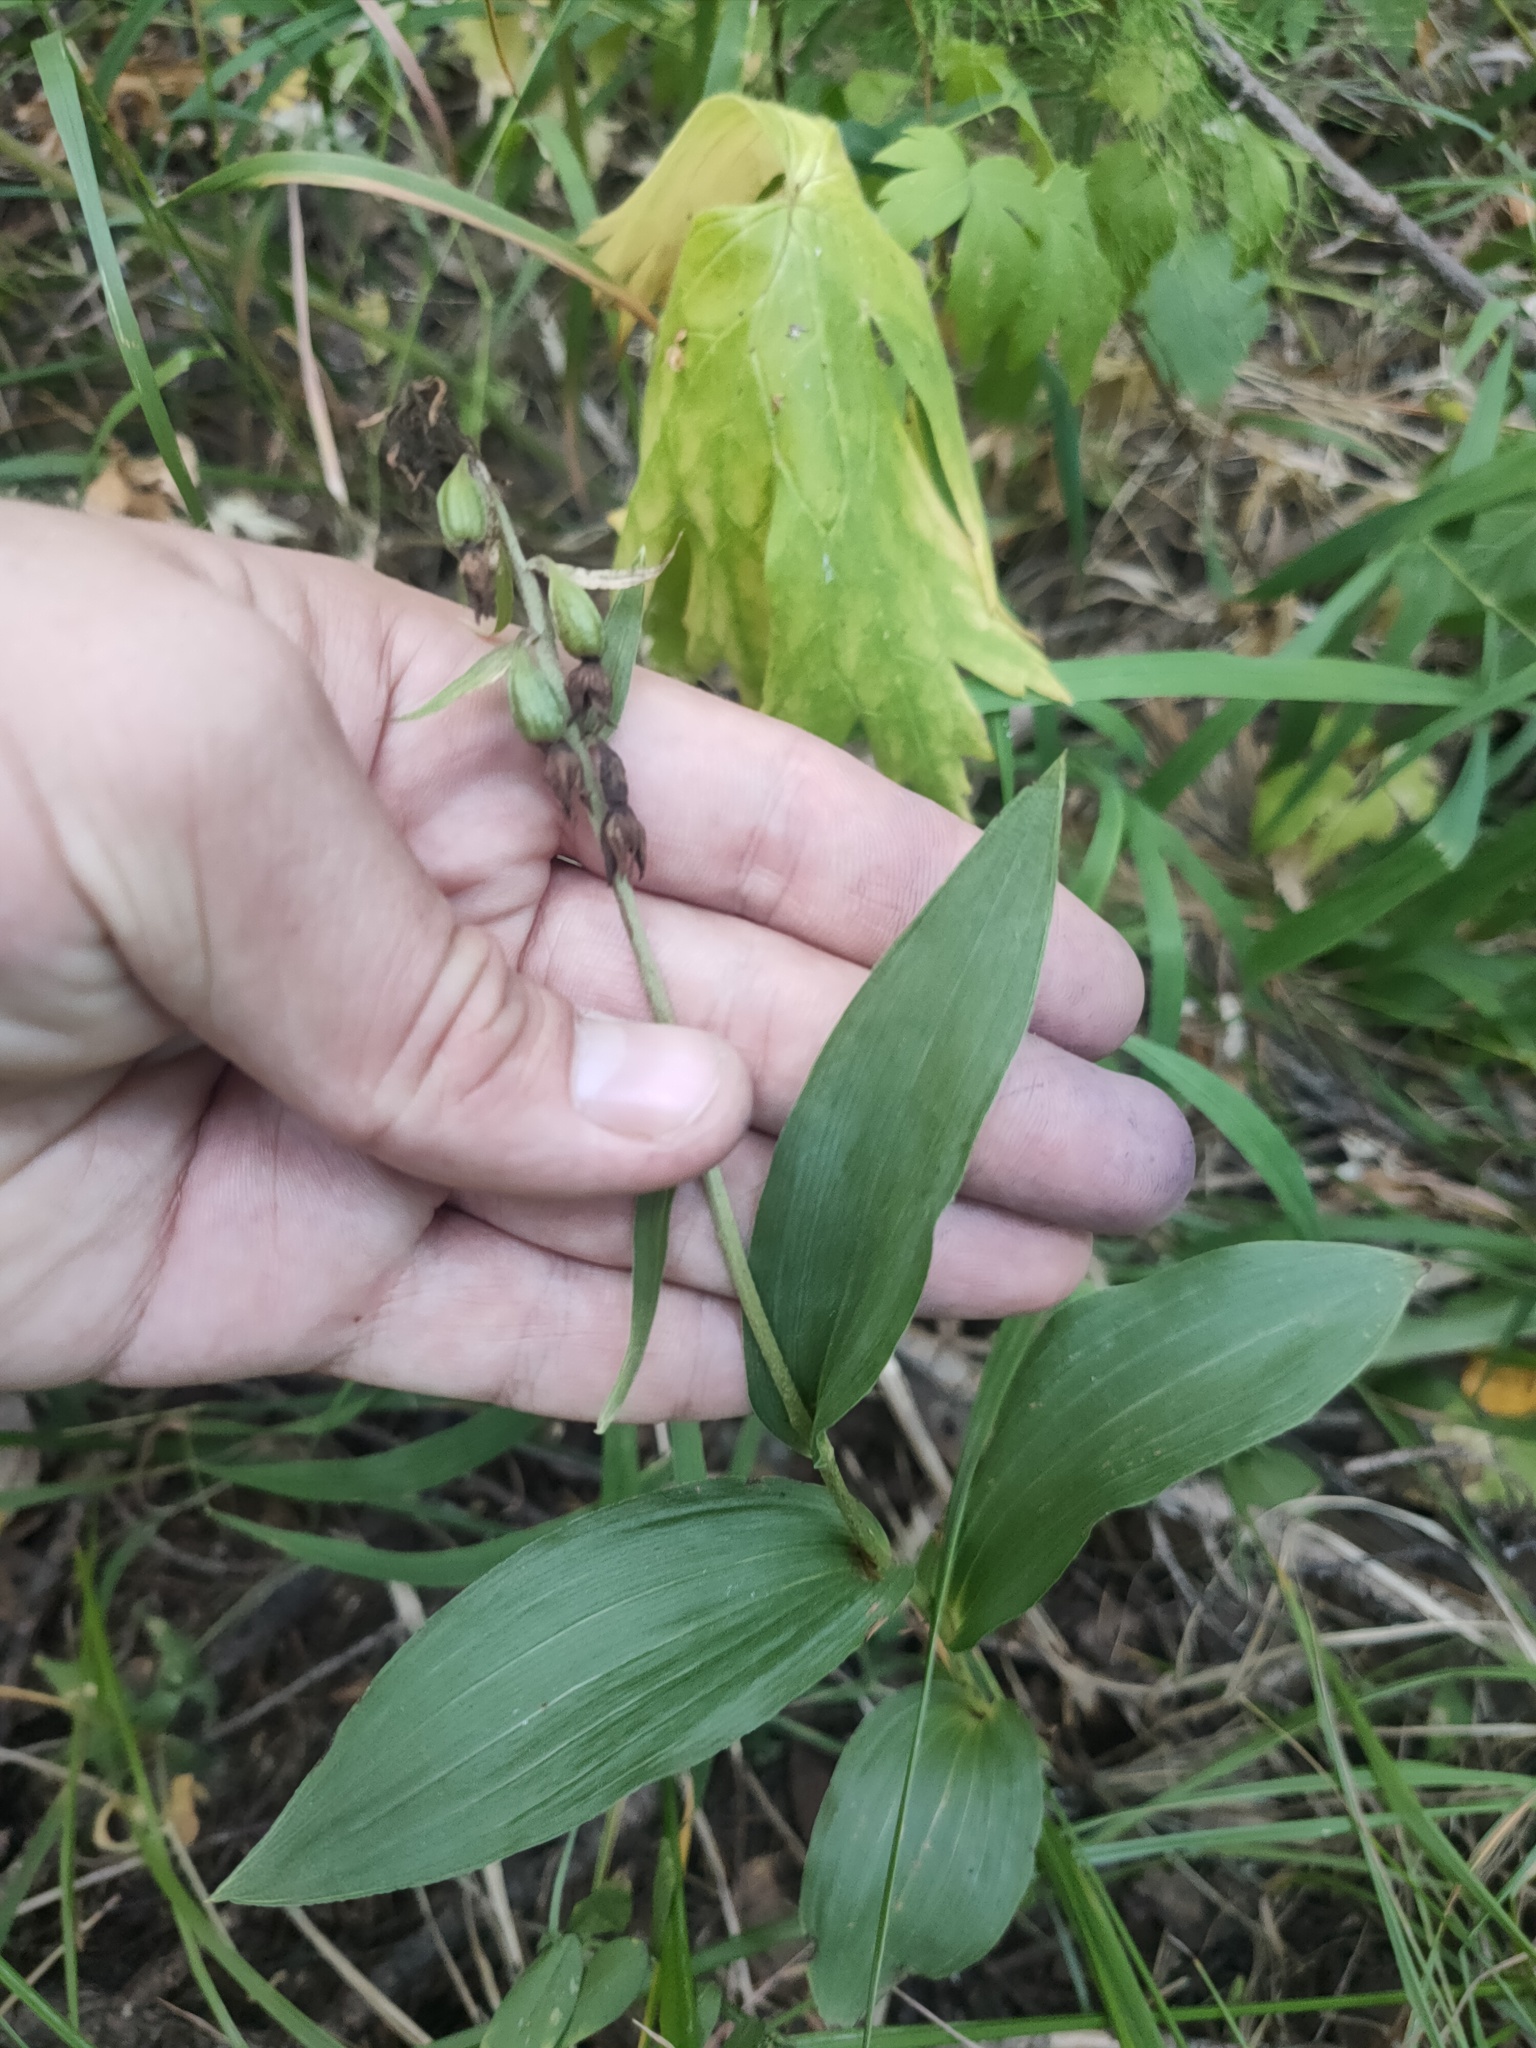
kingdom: Plantae
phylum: Tracheophyta
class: Liliopsida
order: Asparagales
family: Orchidaceae
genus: Epipactis
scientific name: Epipactis helleborine
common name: Broad-leaved helleborine
